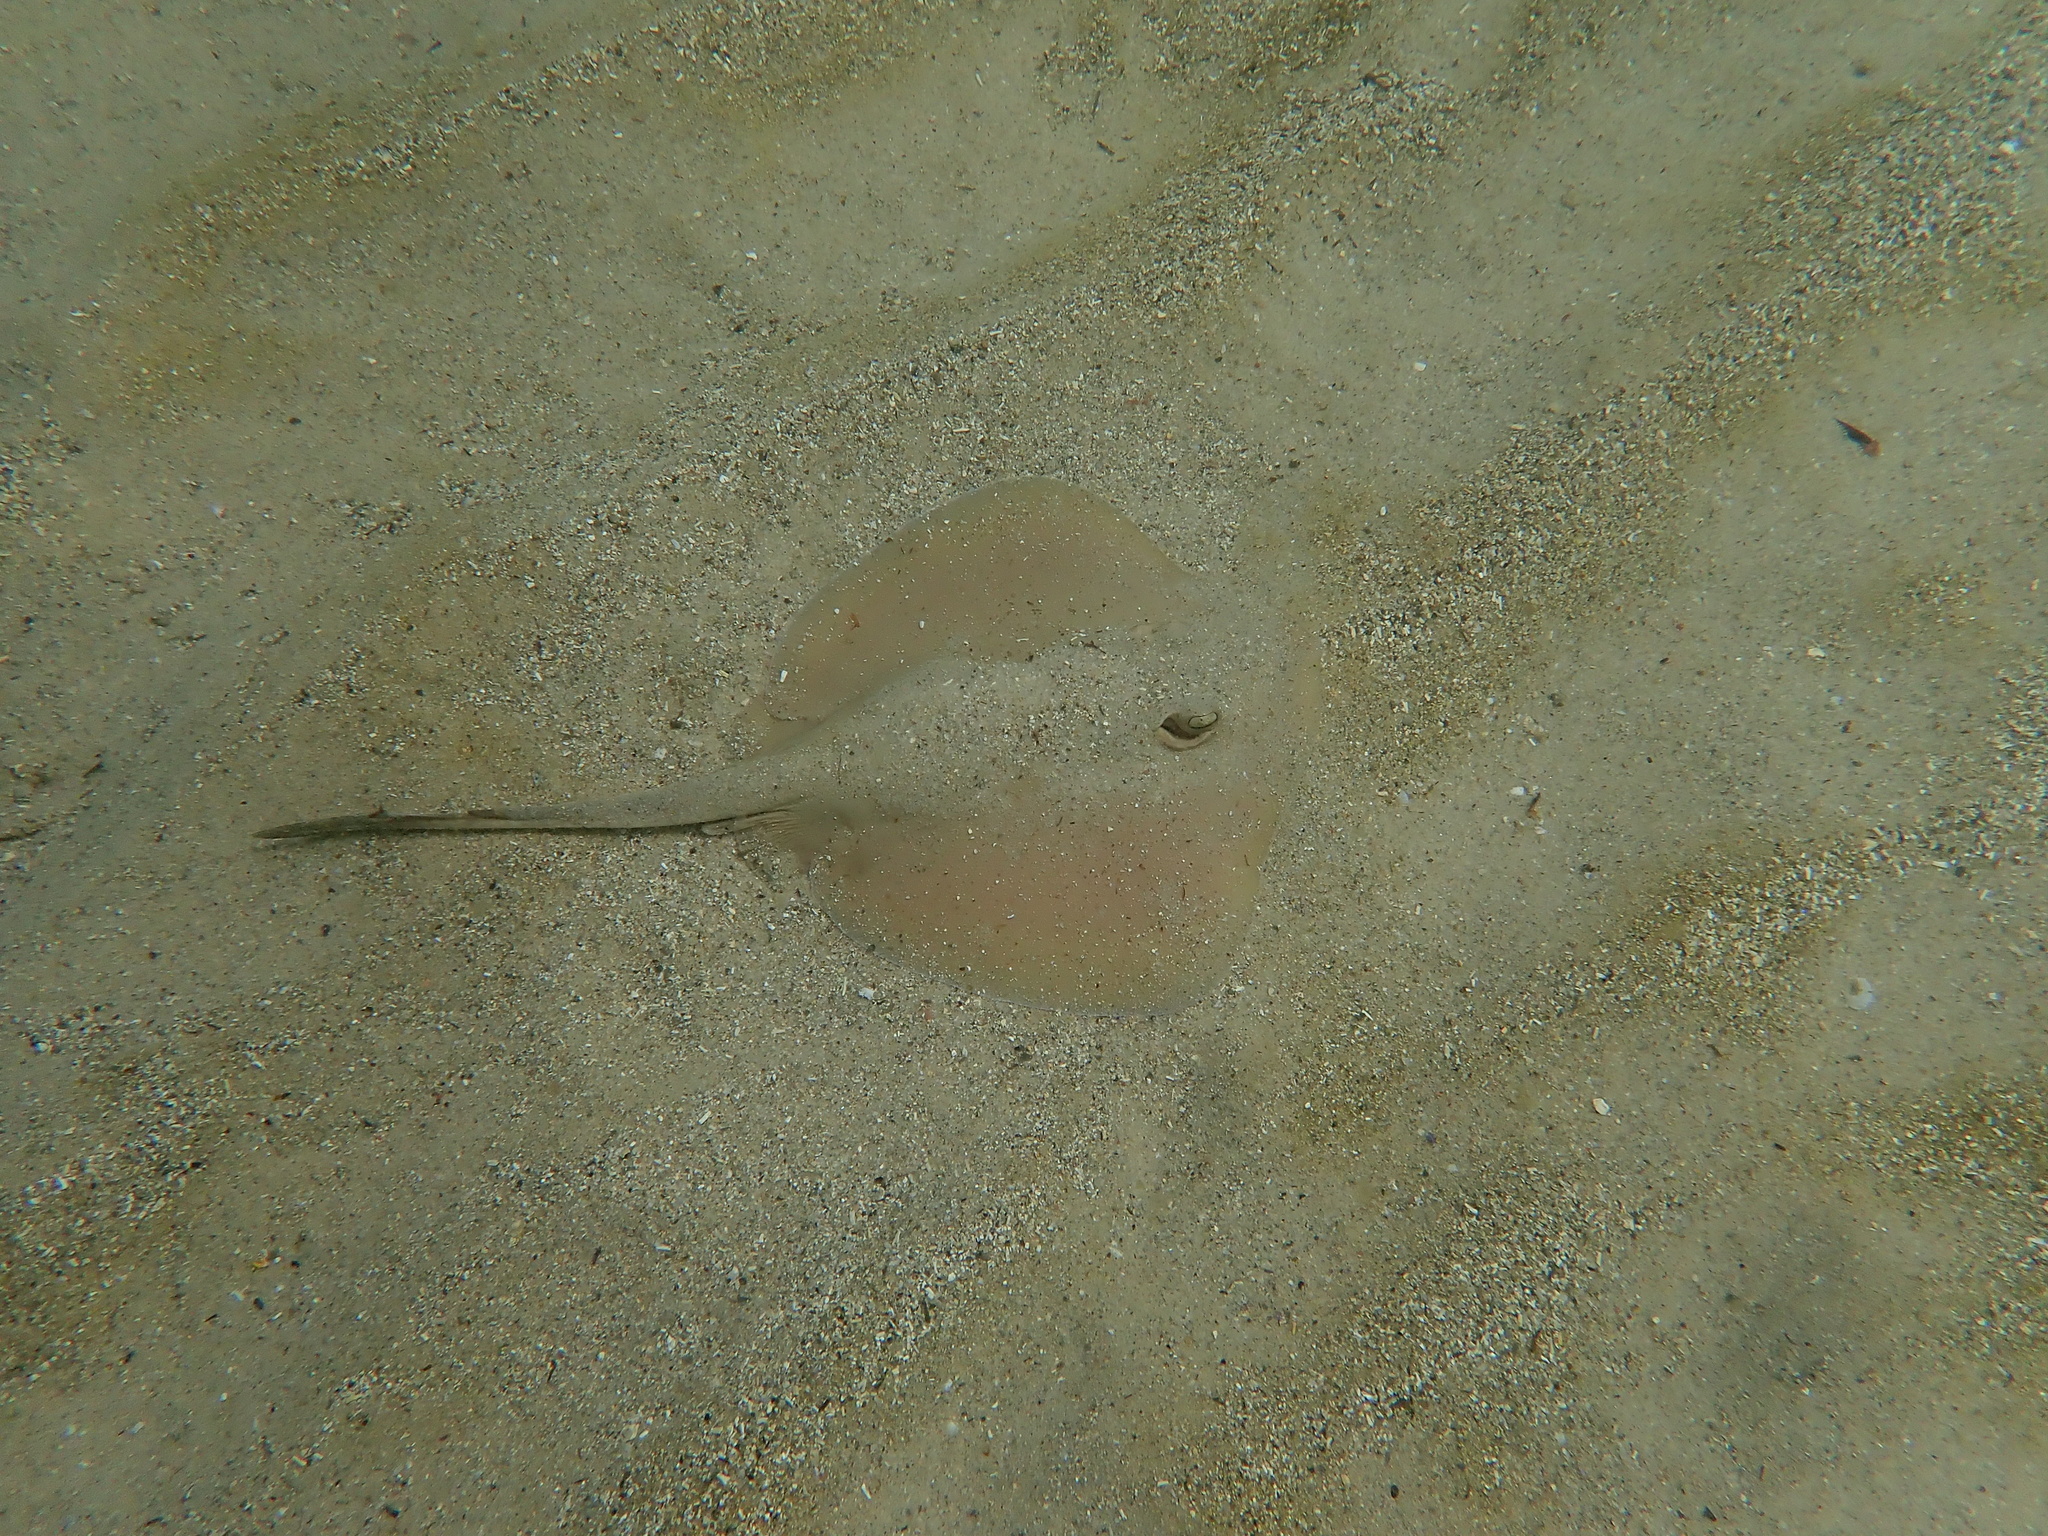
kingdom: Animalia
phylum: Chordata
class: Elasmobranchii
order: Myliobatiformes
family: Urolophidae
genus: Trygonoptera
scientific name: Trygonoptera testacea
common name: Common stingaree
